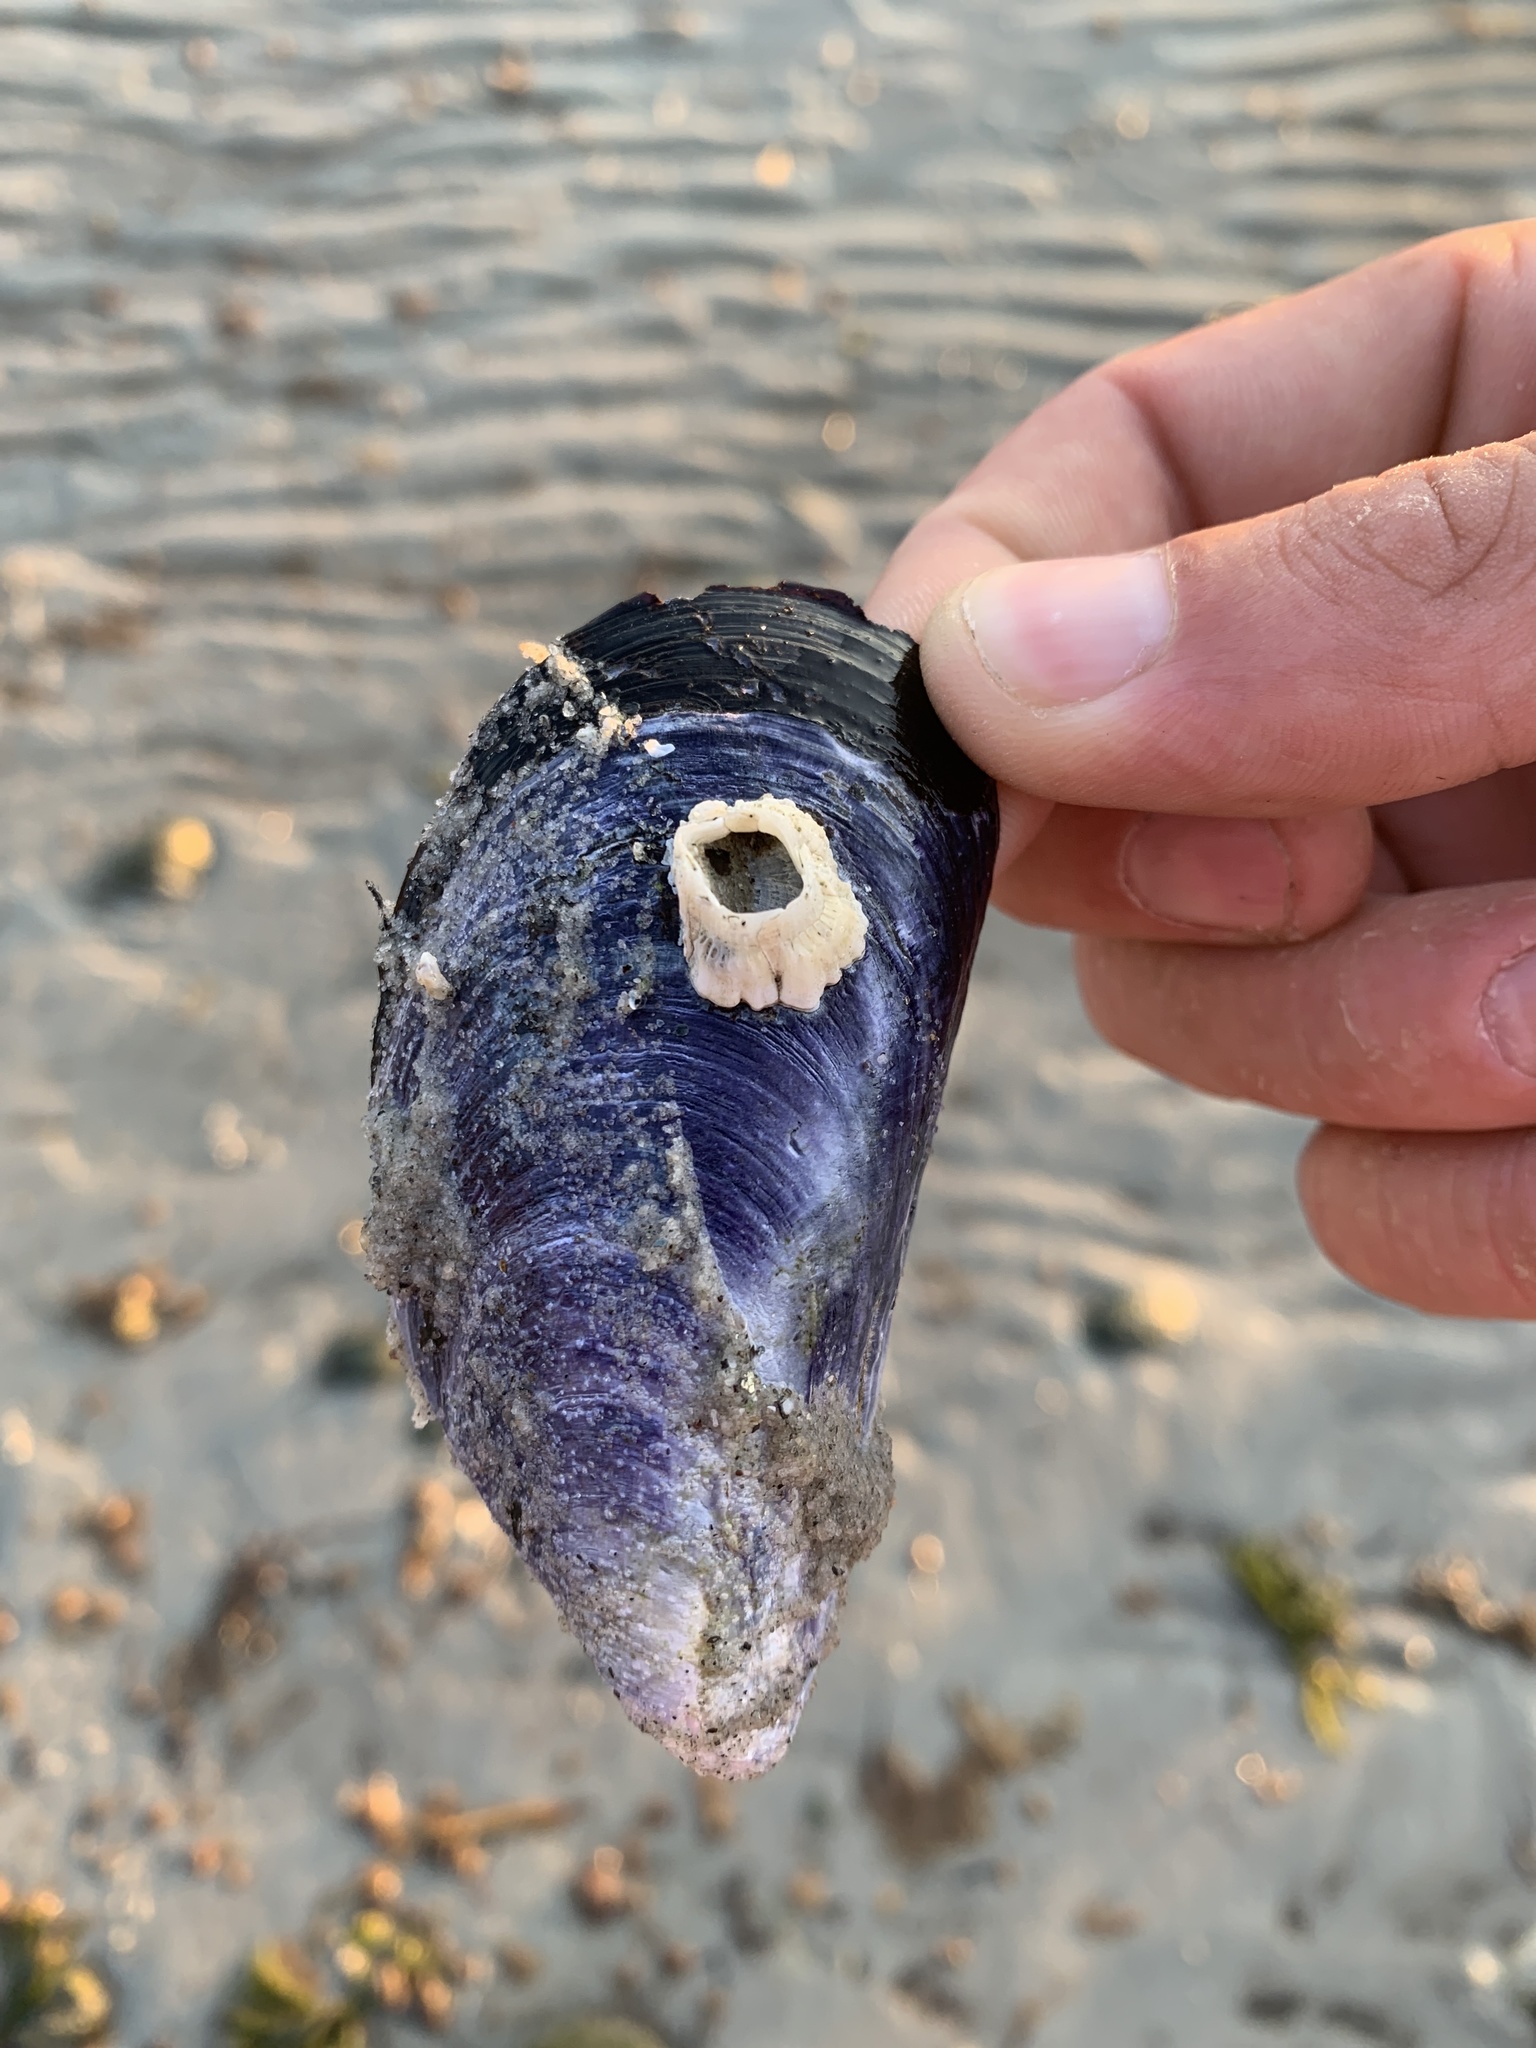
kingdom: Animalia
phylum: Mollusca
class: Bivalvia
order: Mytilida
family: Mytilidae
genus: Mytilus
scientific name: Mytilus edulis
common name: Blue mussel
